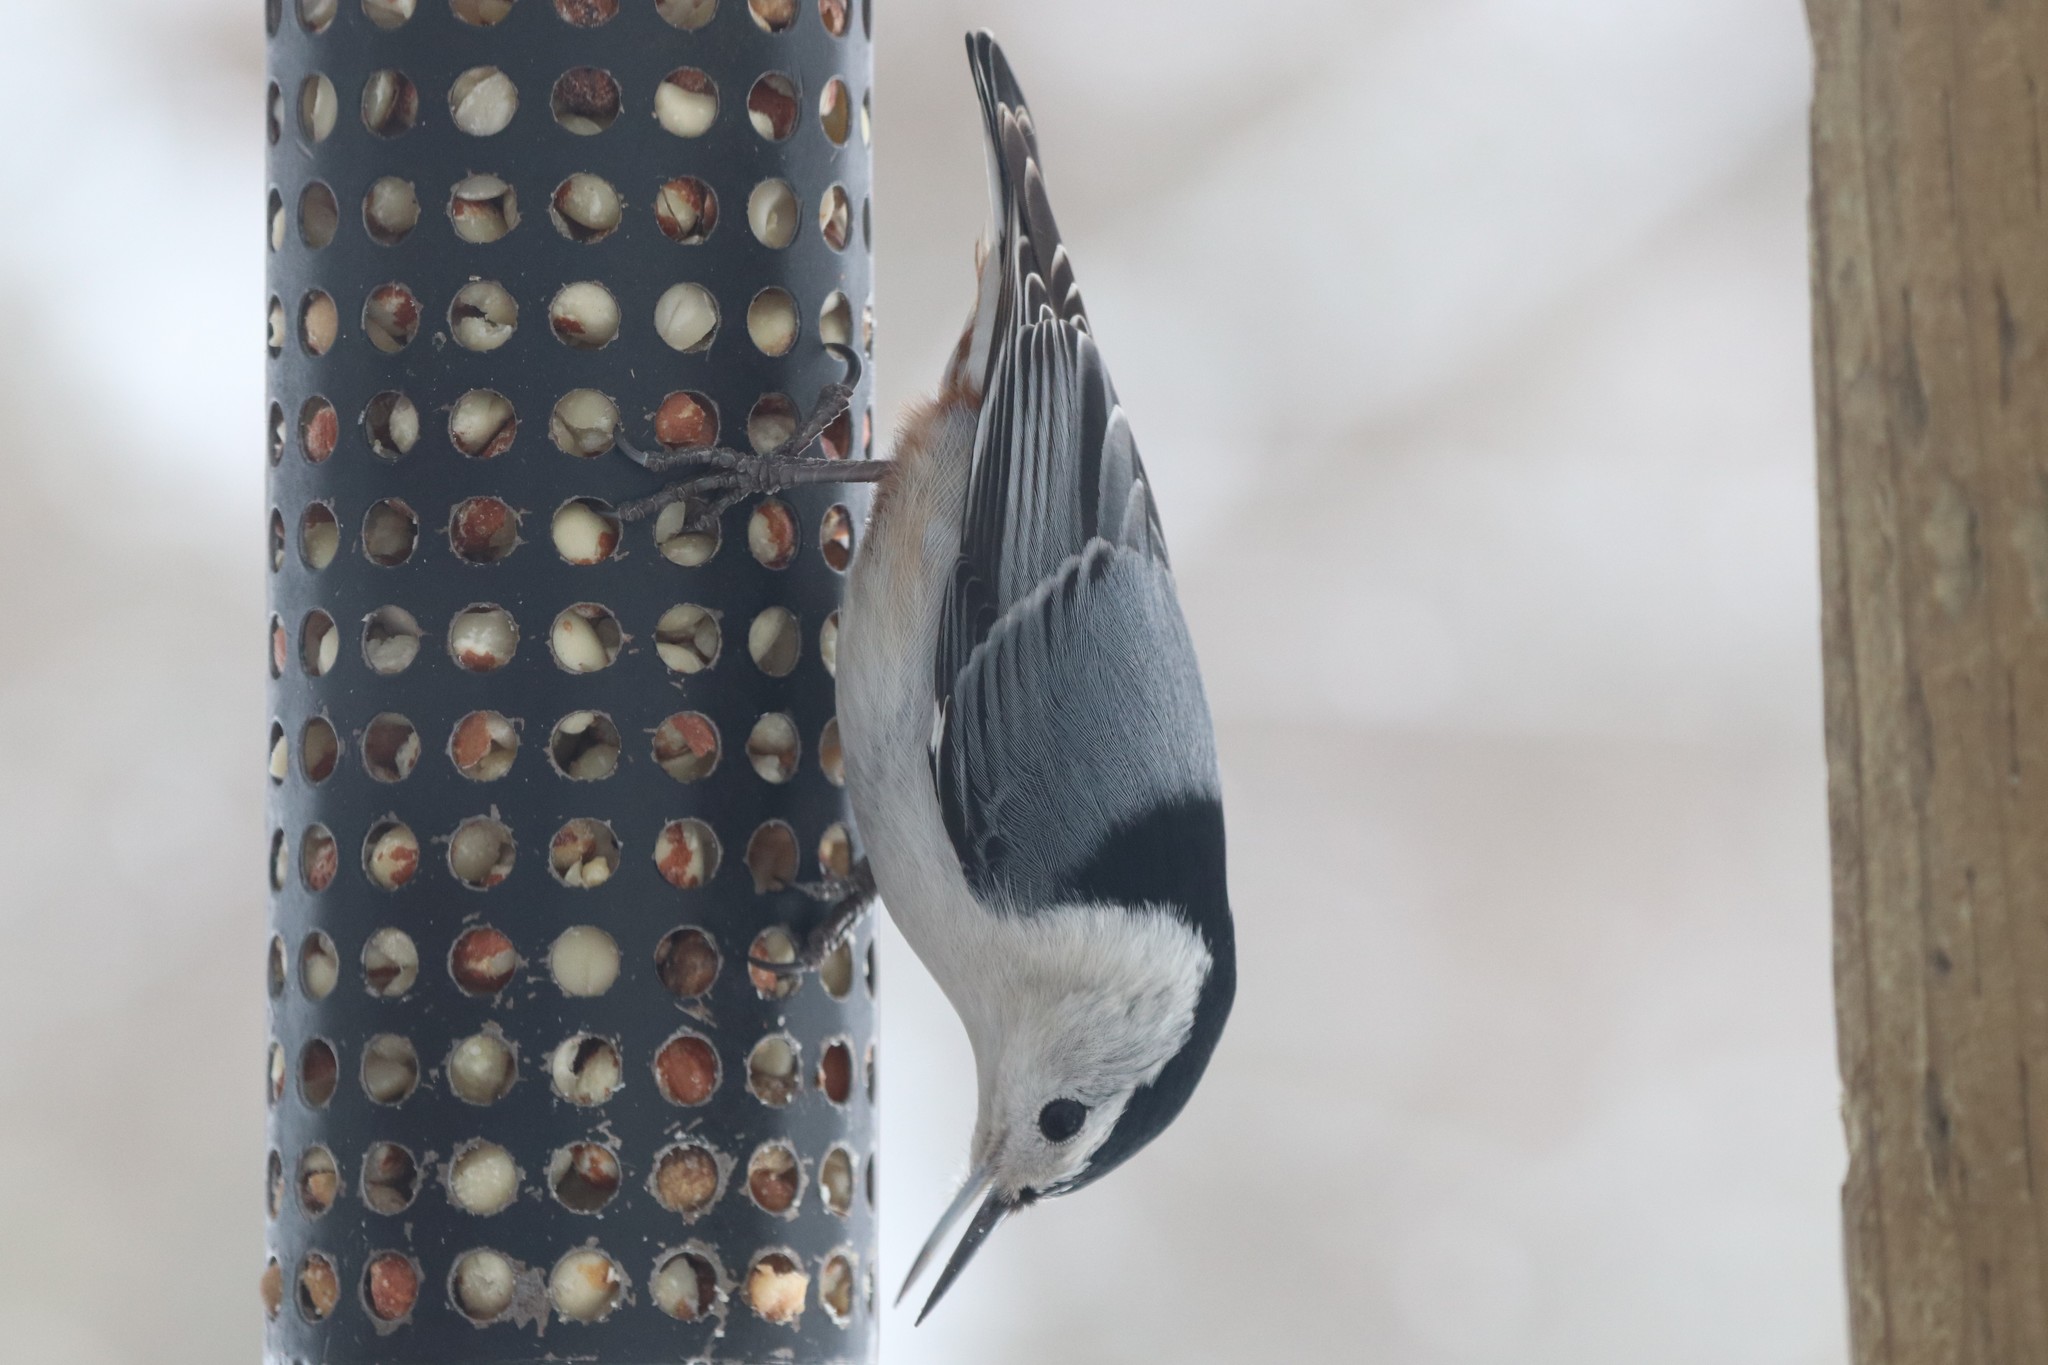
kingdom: Animalia
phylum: Chordata
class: Aves
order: Passeriformes
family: Sittidae
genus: Sitta
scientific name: Sitta carolinensis
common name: White-breasted nuthatch
